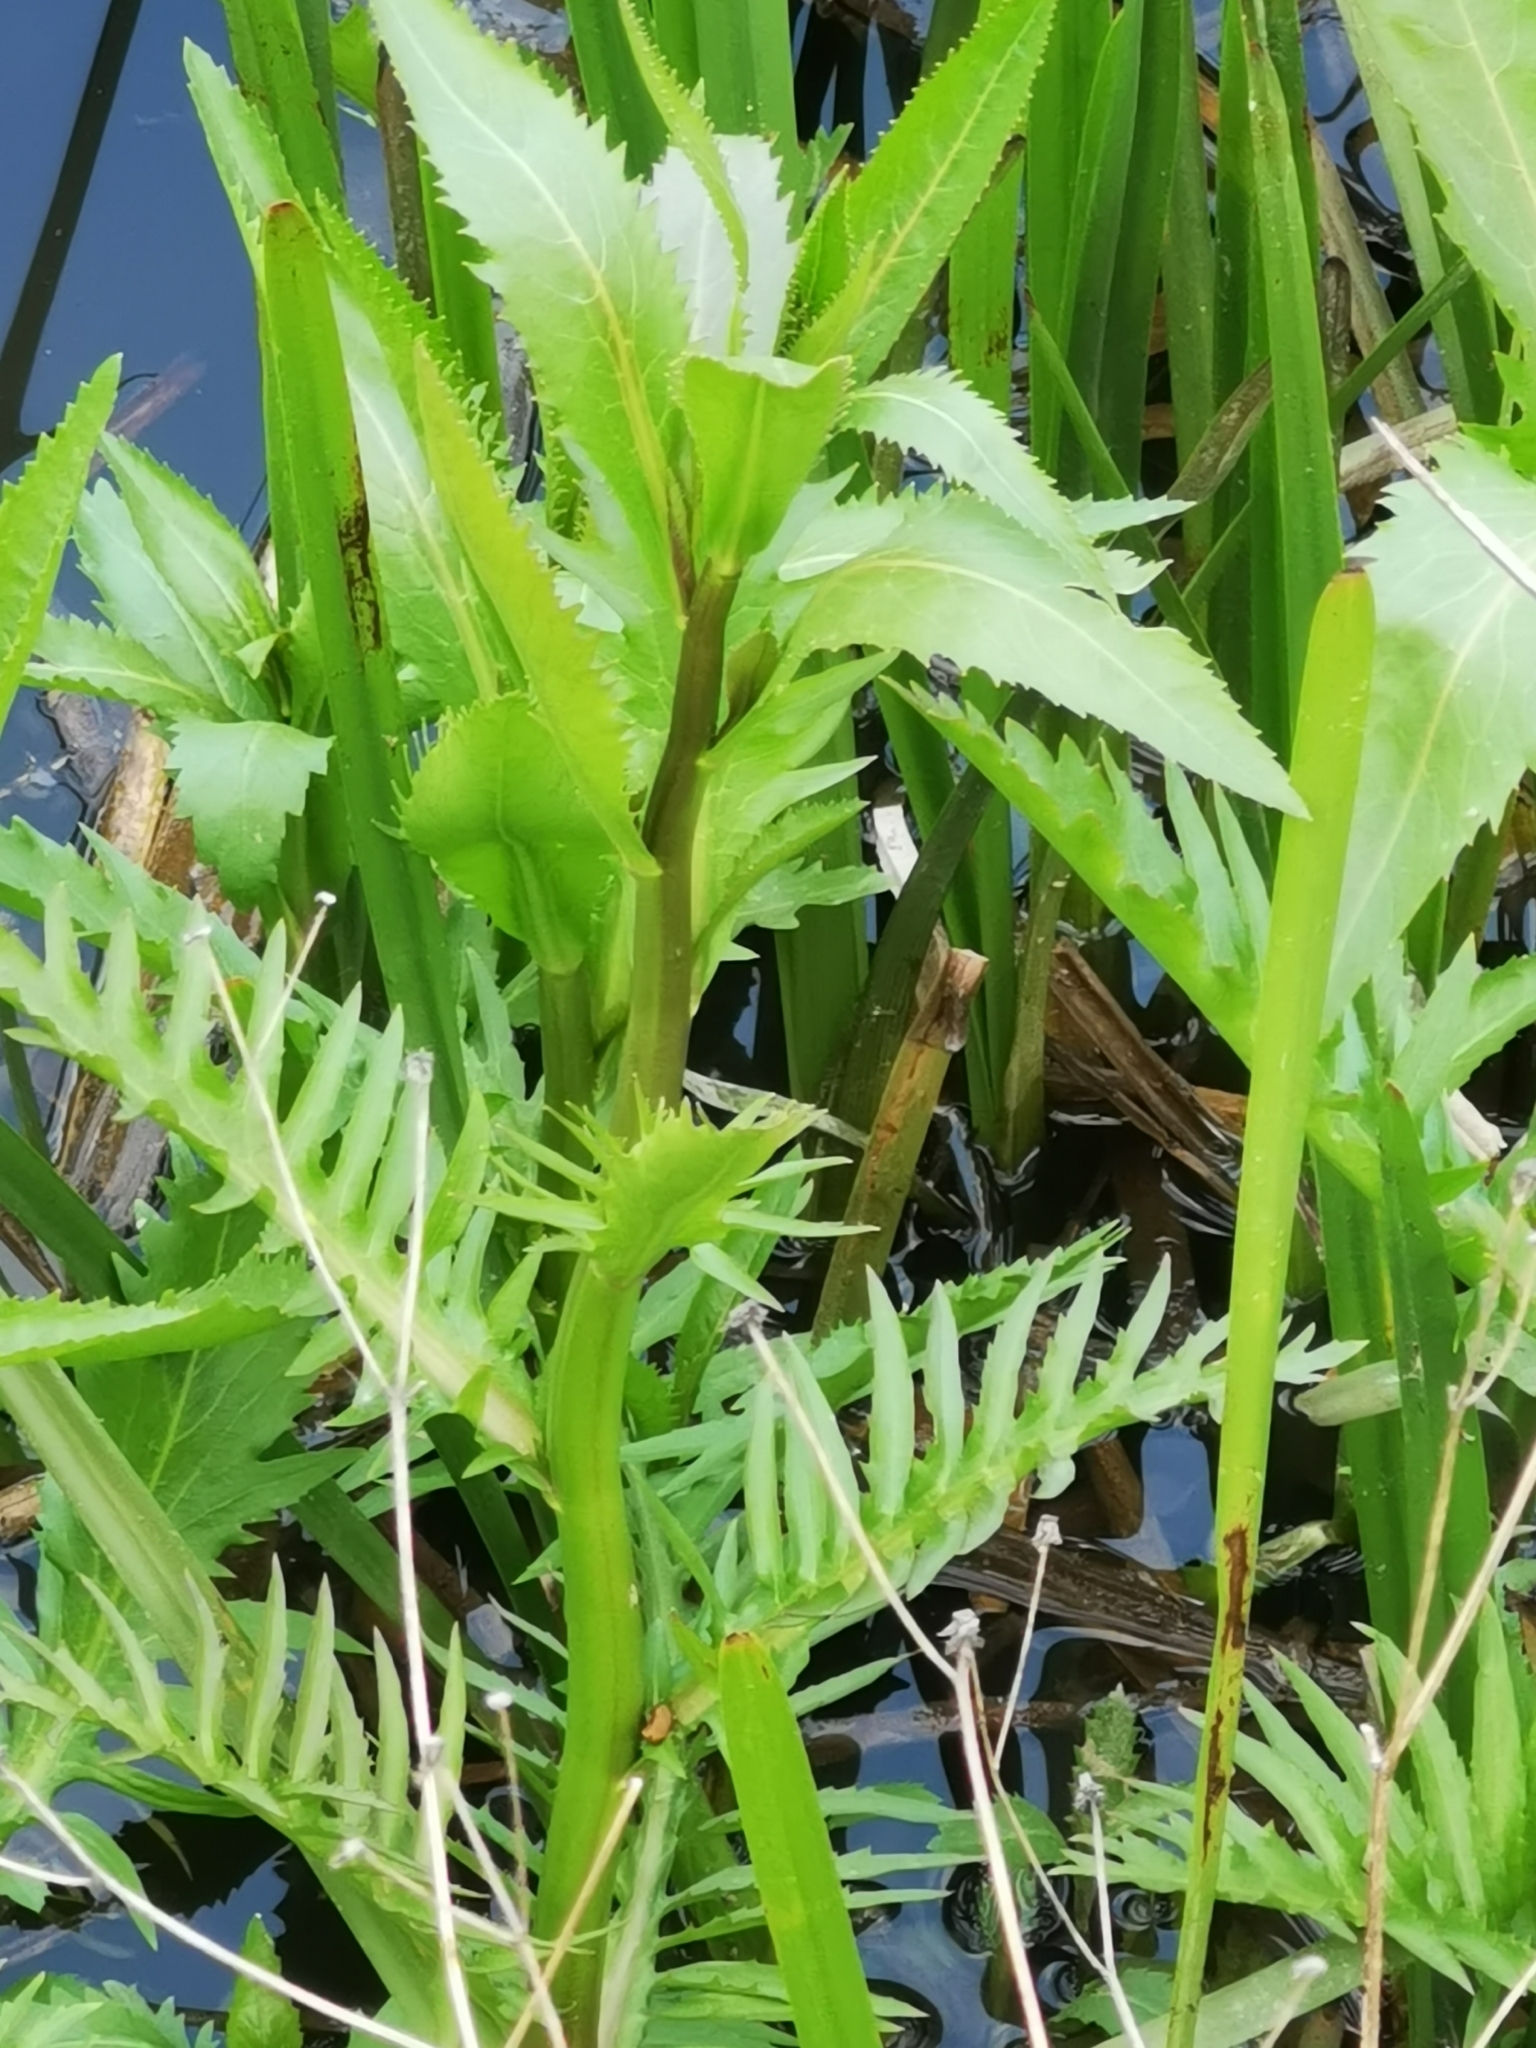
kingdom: Plantae
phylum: Tracheophyta
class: Magnoliopsida
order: Brassicales
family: Brassicaceae
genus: Rorippa
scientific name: Rorippa amphibia
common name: Great yellow-cress
